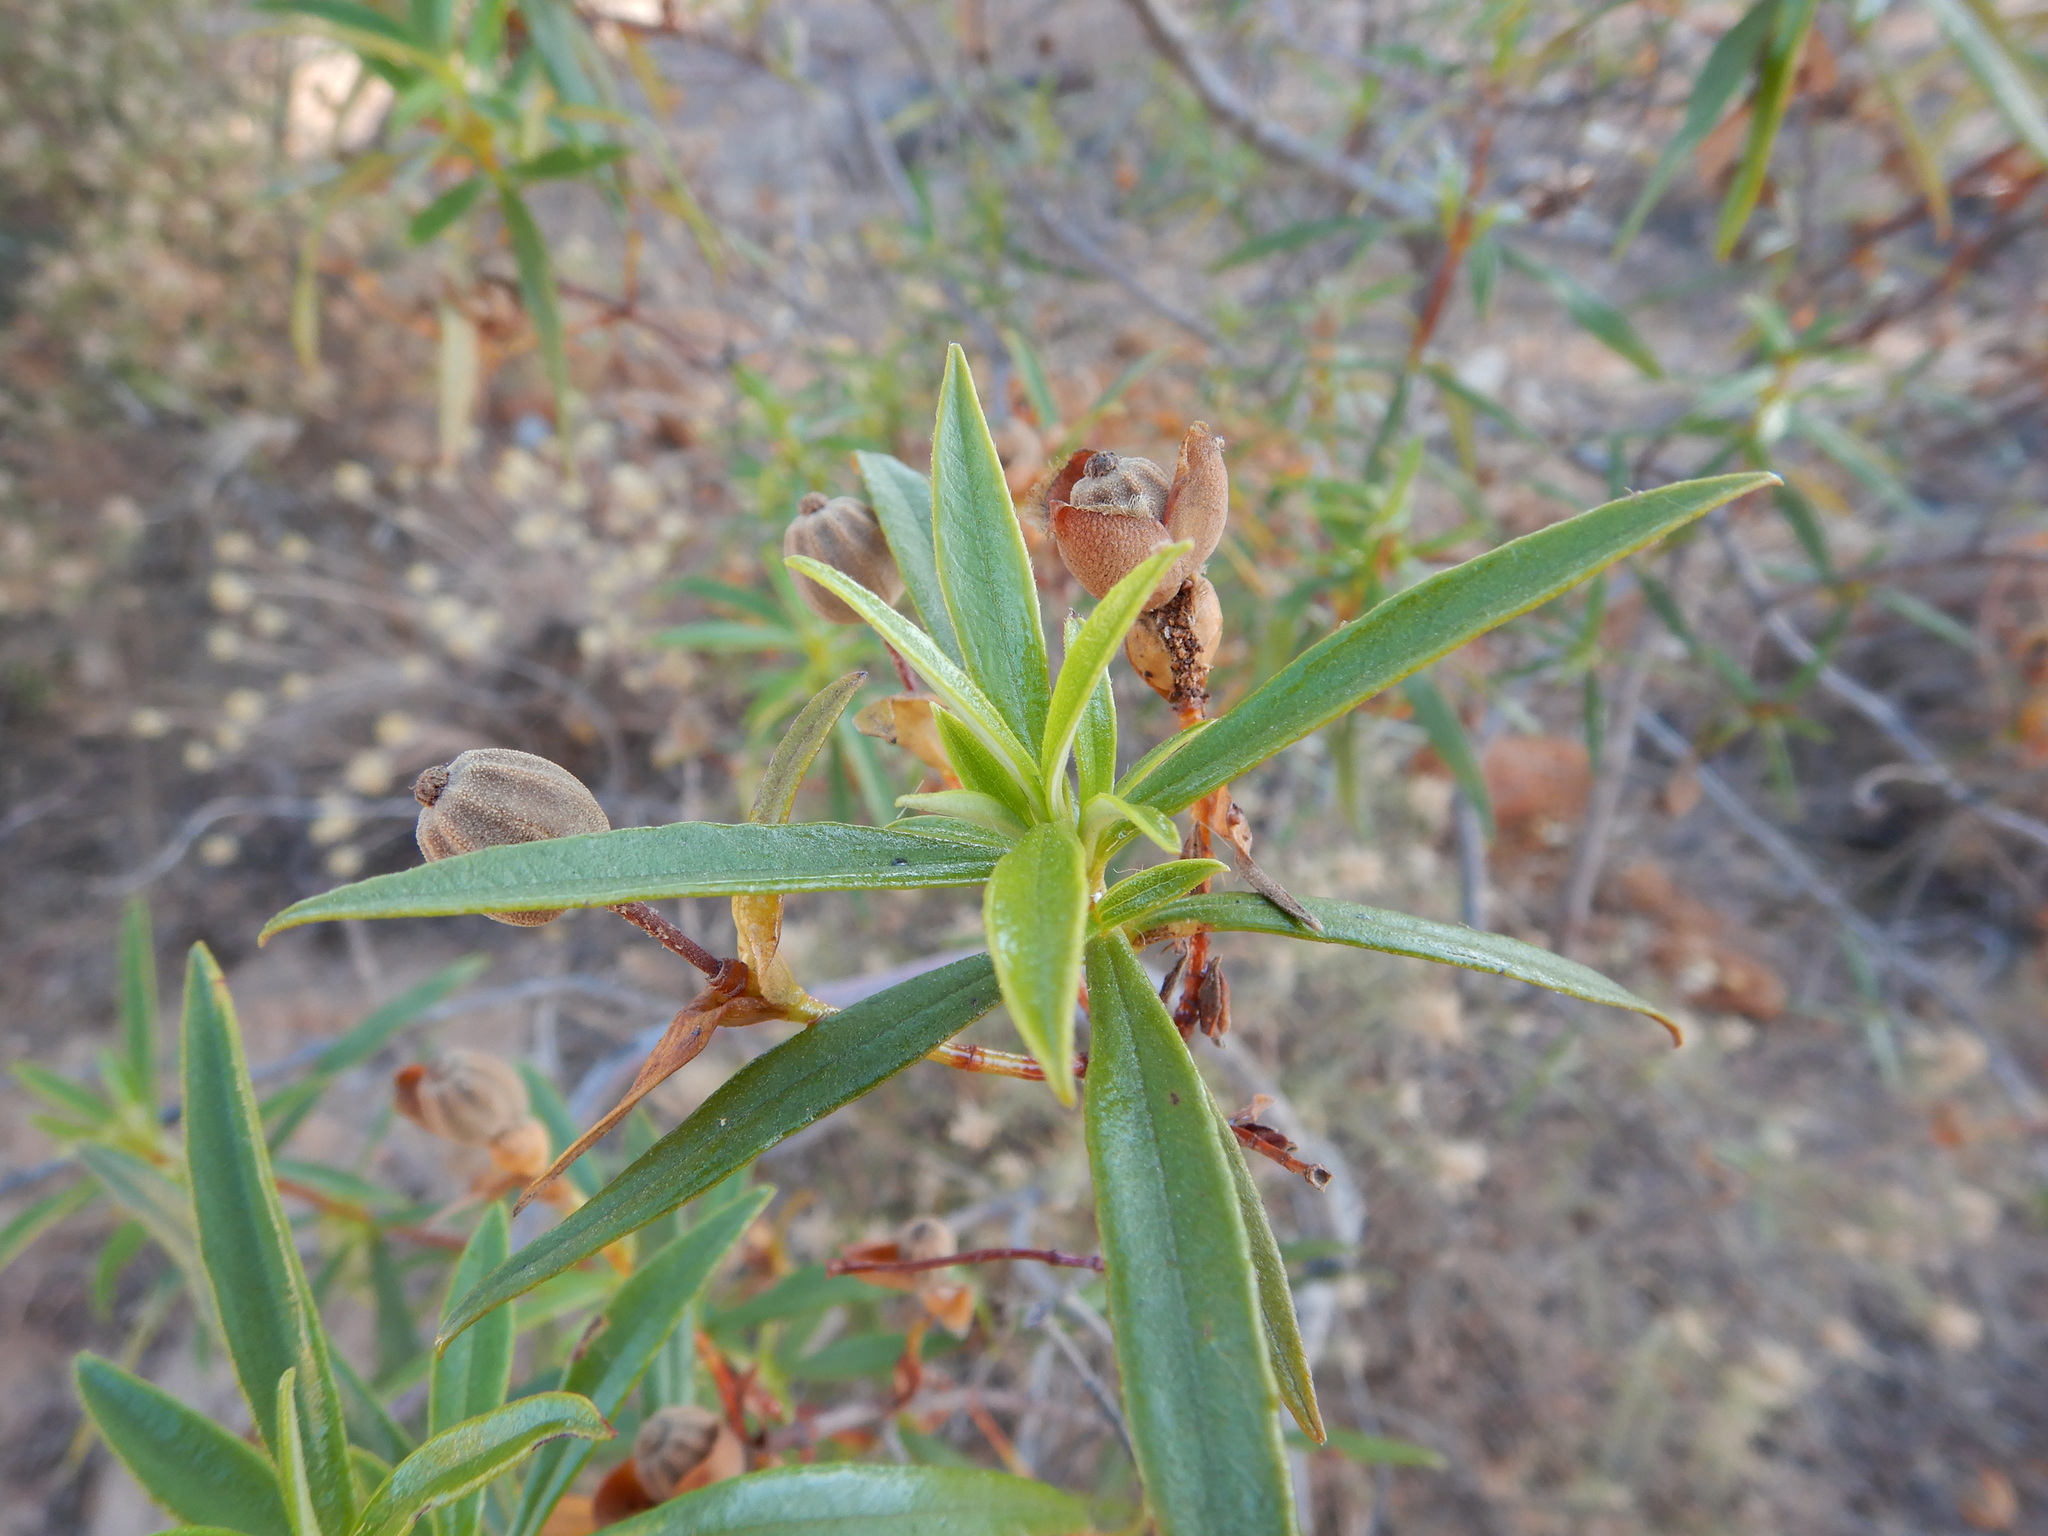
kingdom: Plantae
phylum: Tracheophyta
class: Magnoliopsida
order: Malvales
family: Cistaceae
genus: Cistus
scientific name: Cistus ladanifer
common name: Common gum cistus
